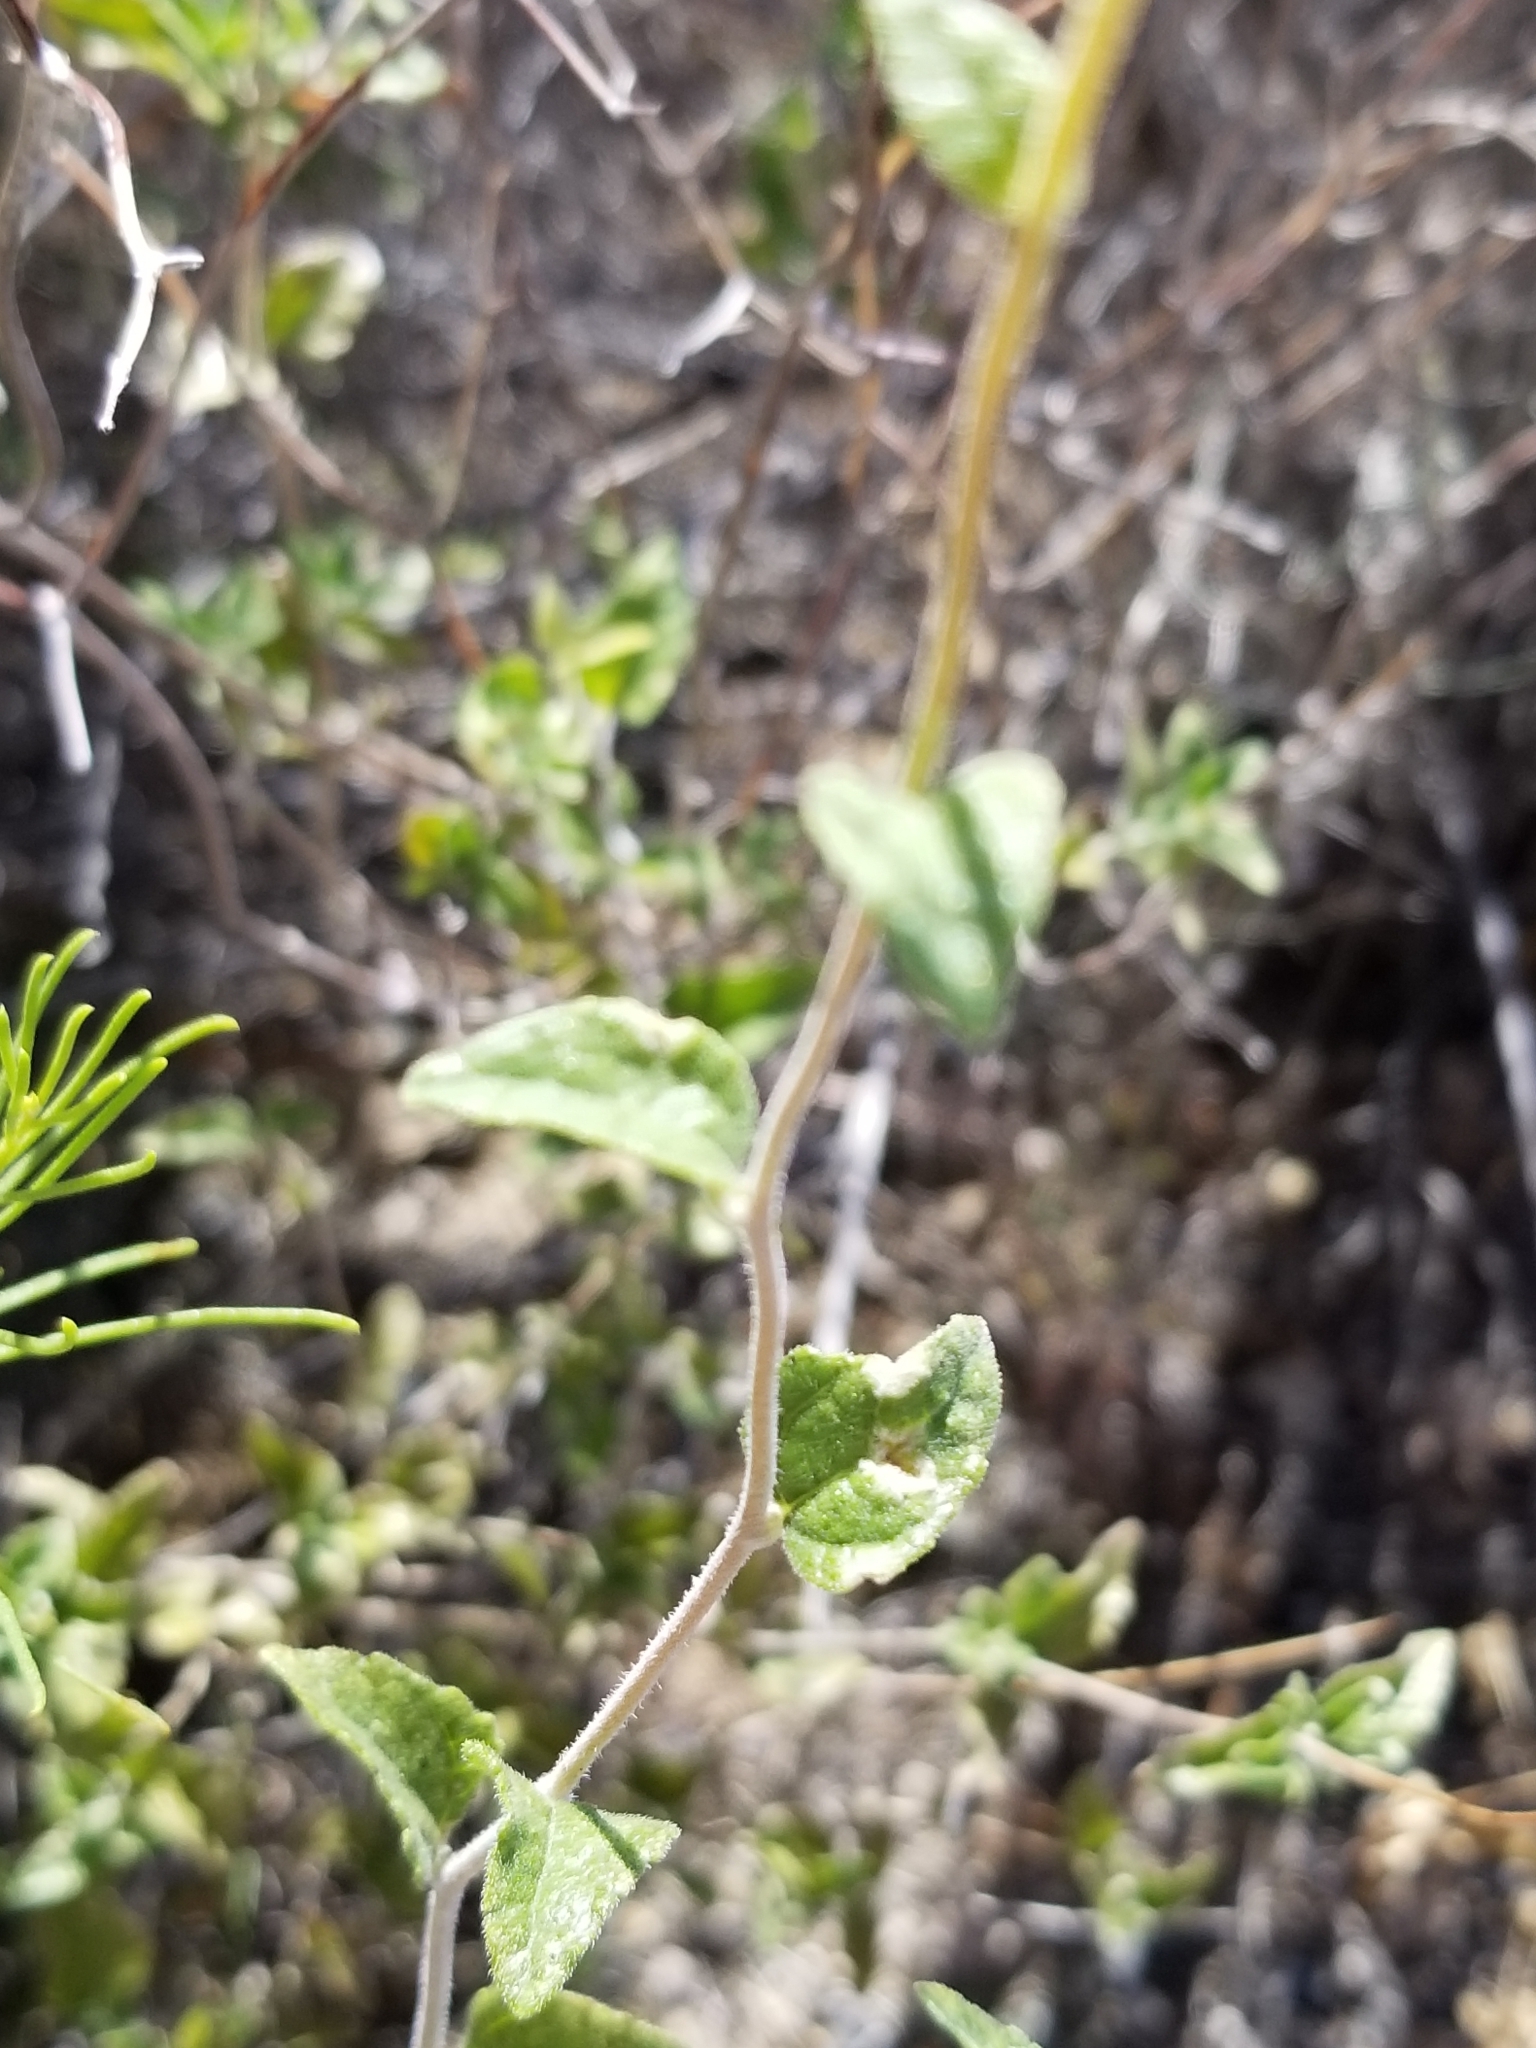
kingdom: Plantae
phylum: Tracheophyta
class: Magnoliopsida
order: Asterales
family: Asteraceae
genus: Bahiopsis
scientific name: Bahiopsis parishii
